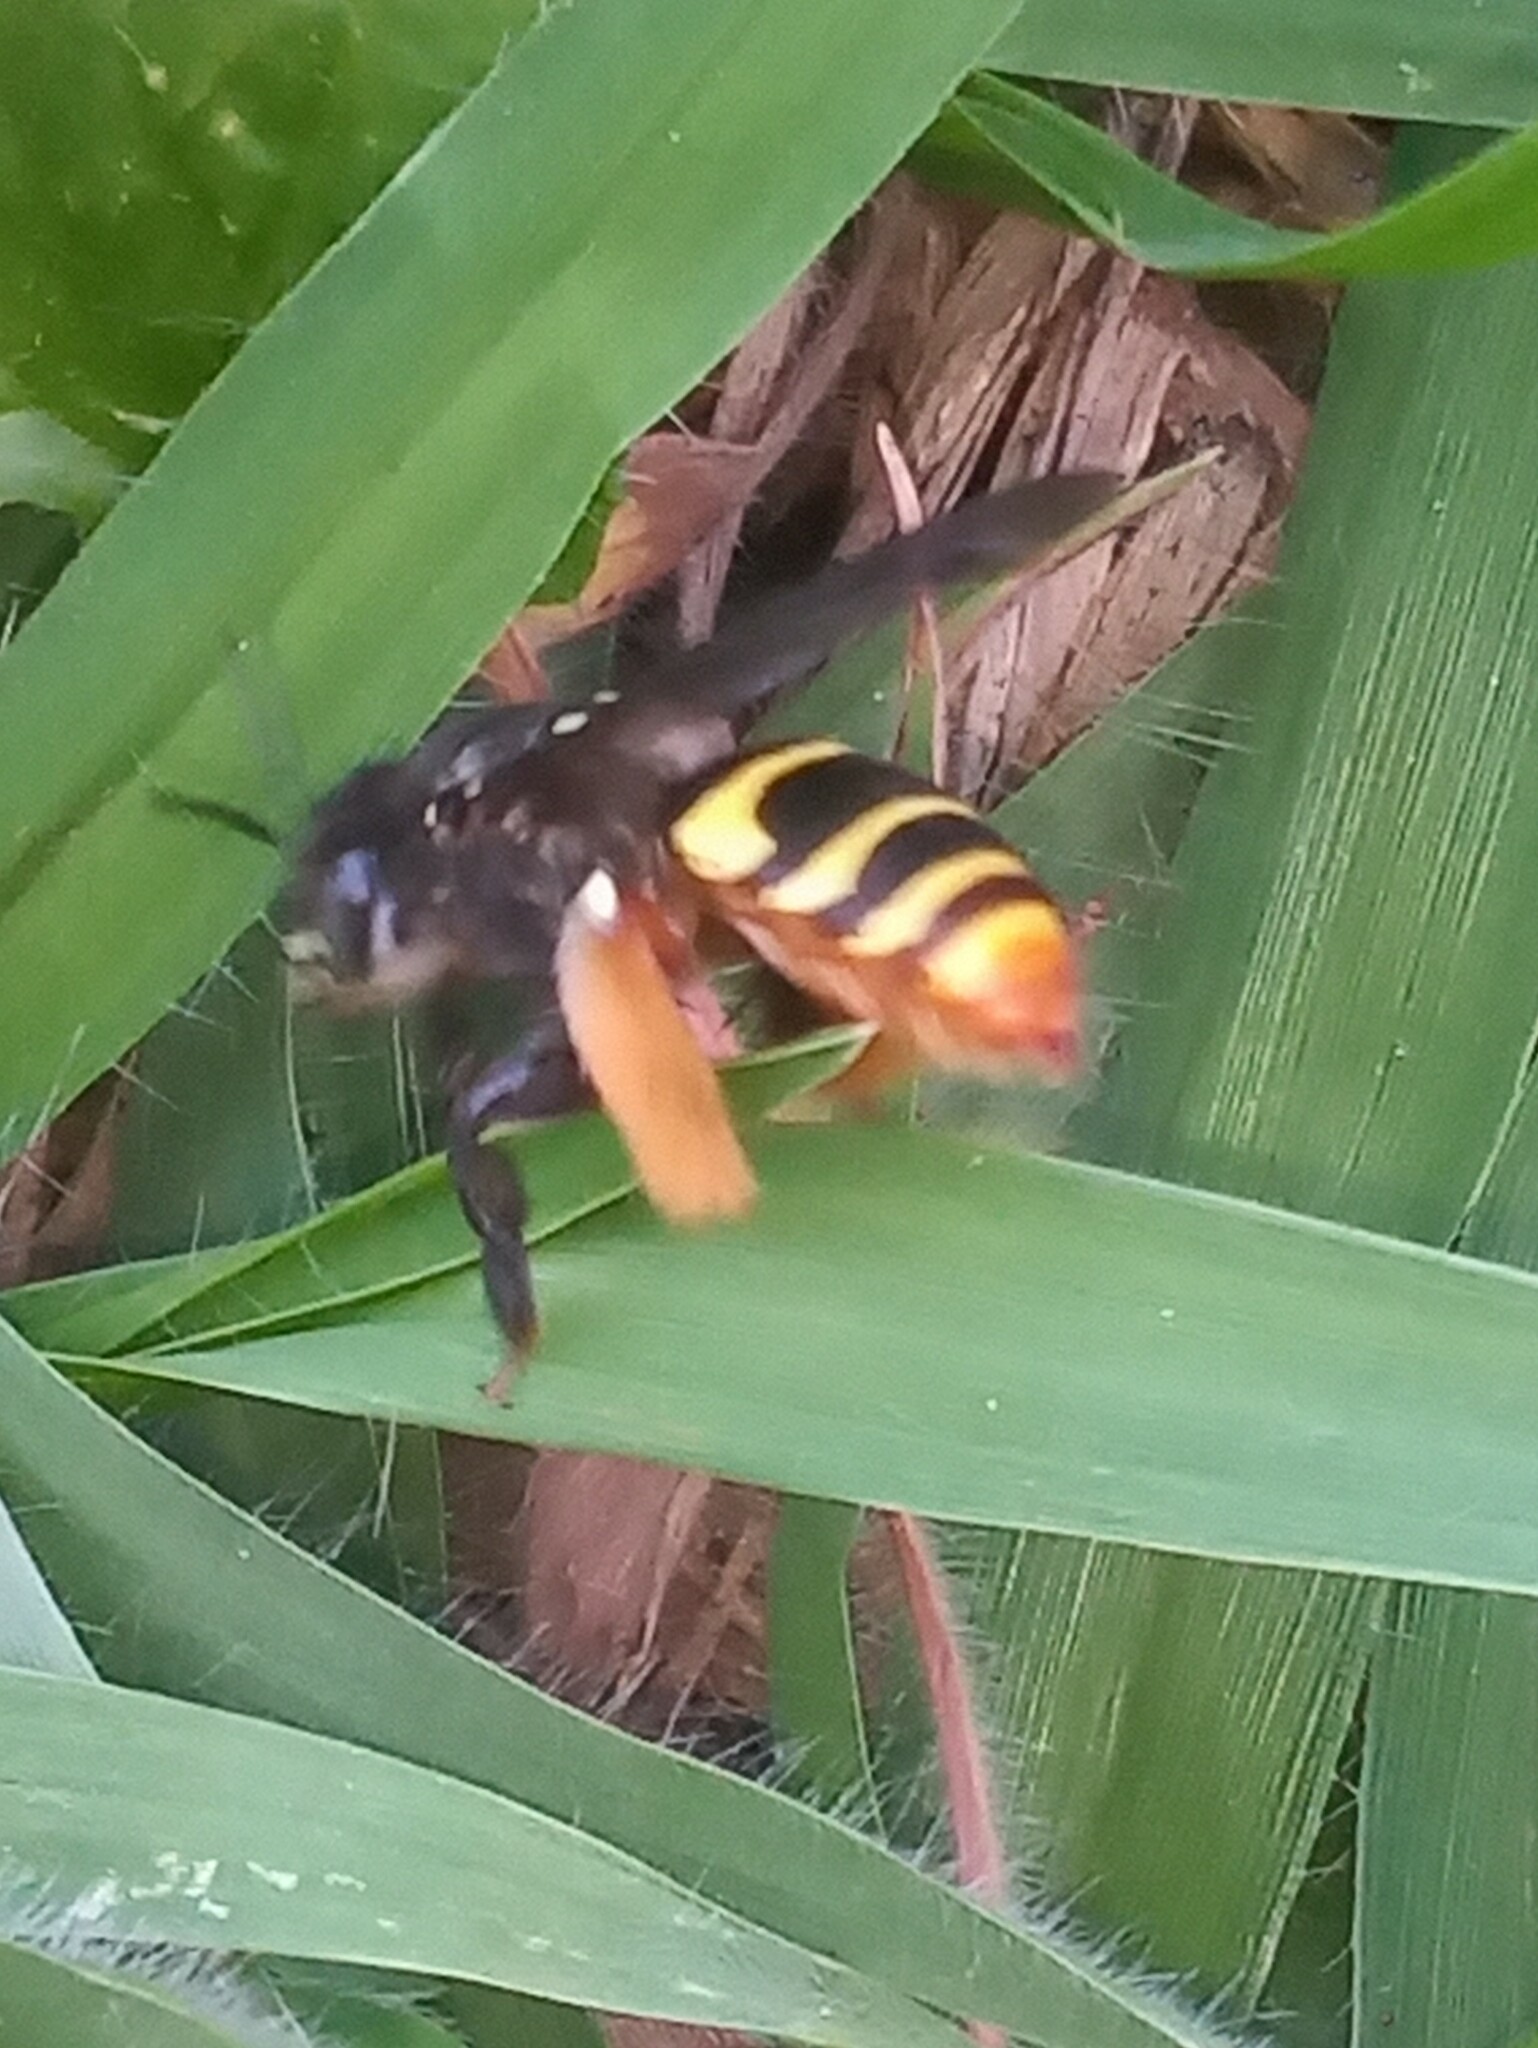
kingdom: Animalia
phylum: Arthropoda
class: Insecta
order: Hymenoptera
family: Apidae
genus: Epicharis
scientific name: Epicharis picta
